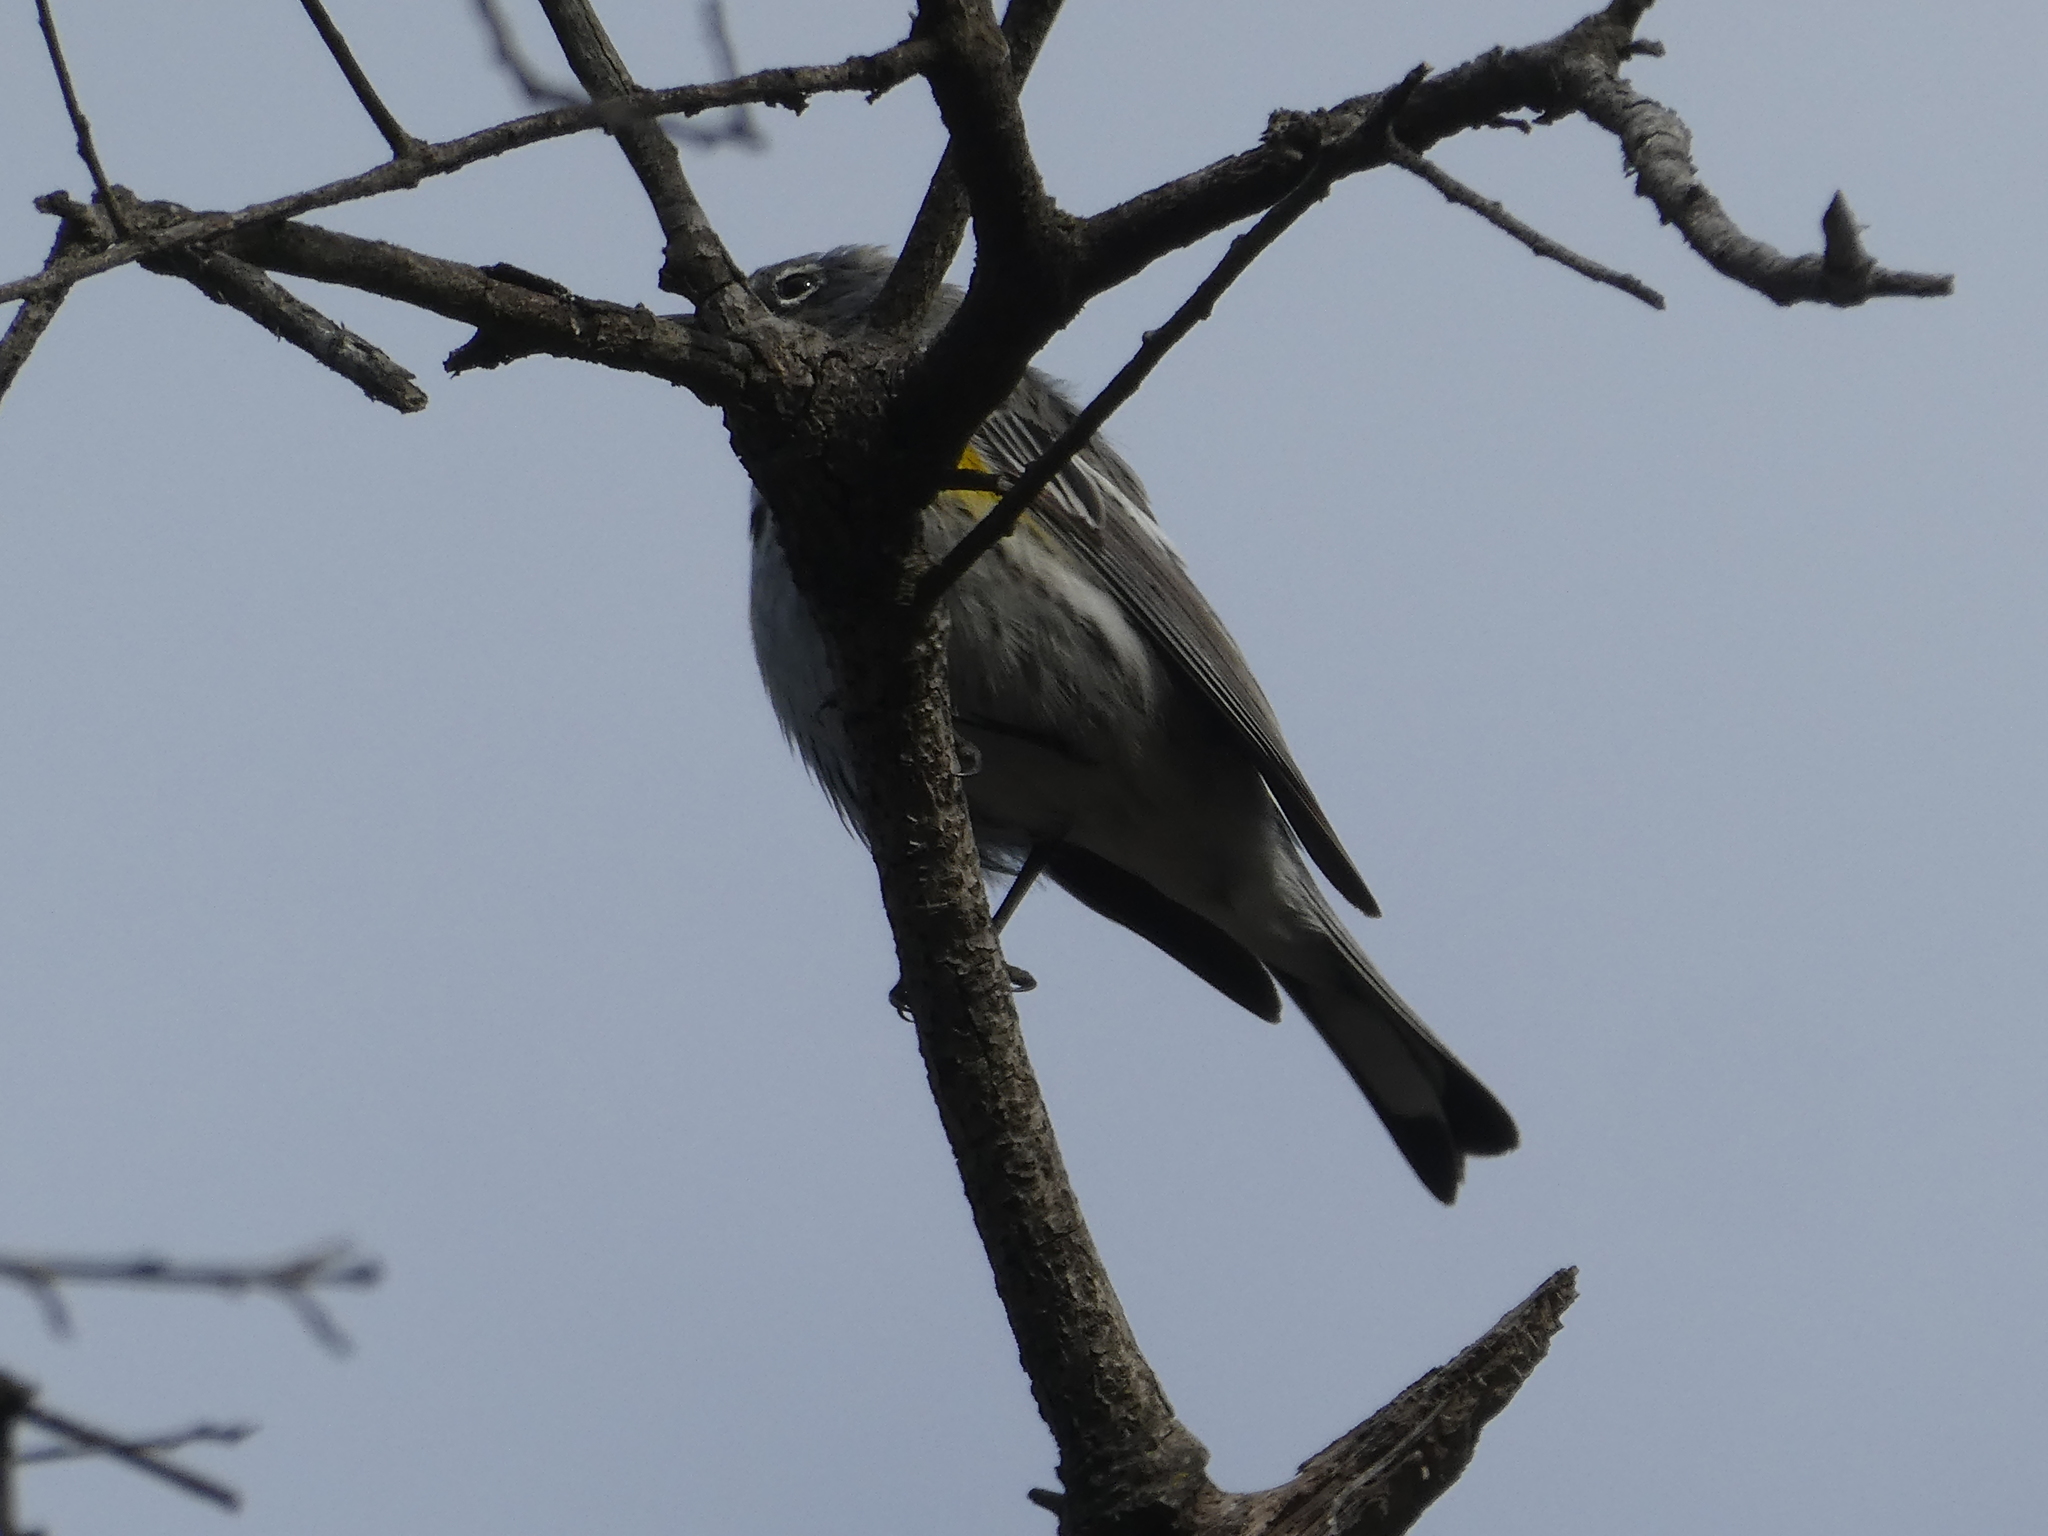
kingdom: Animalia
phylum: Chordata
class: Aves
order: Passeriformes
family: Parulidae
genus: Setophaga
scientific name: Setophaga coronata
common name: Myrtle warbler
